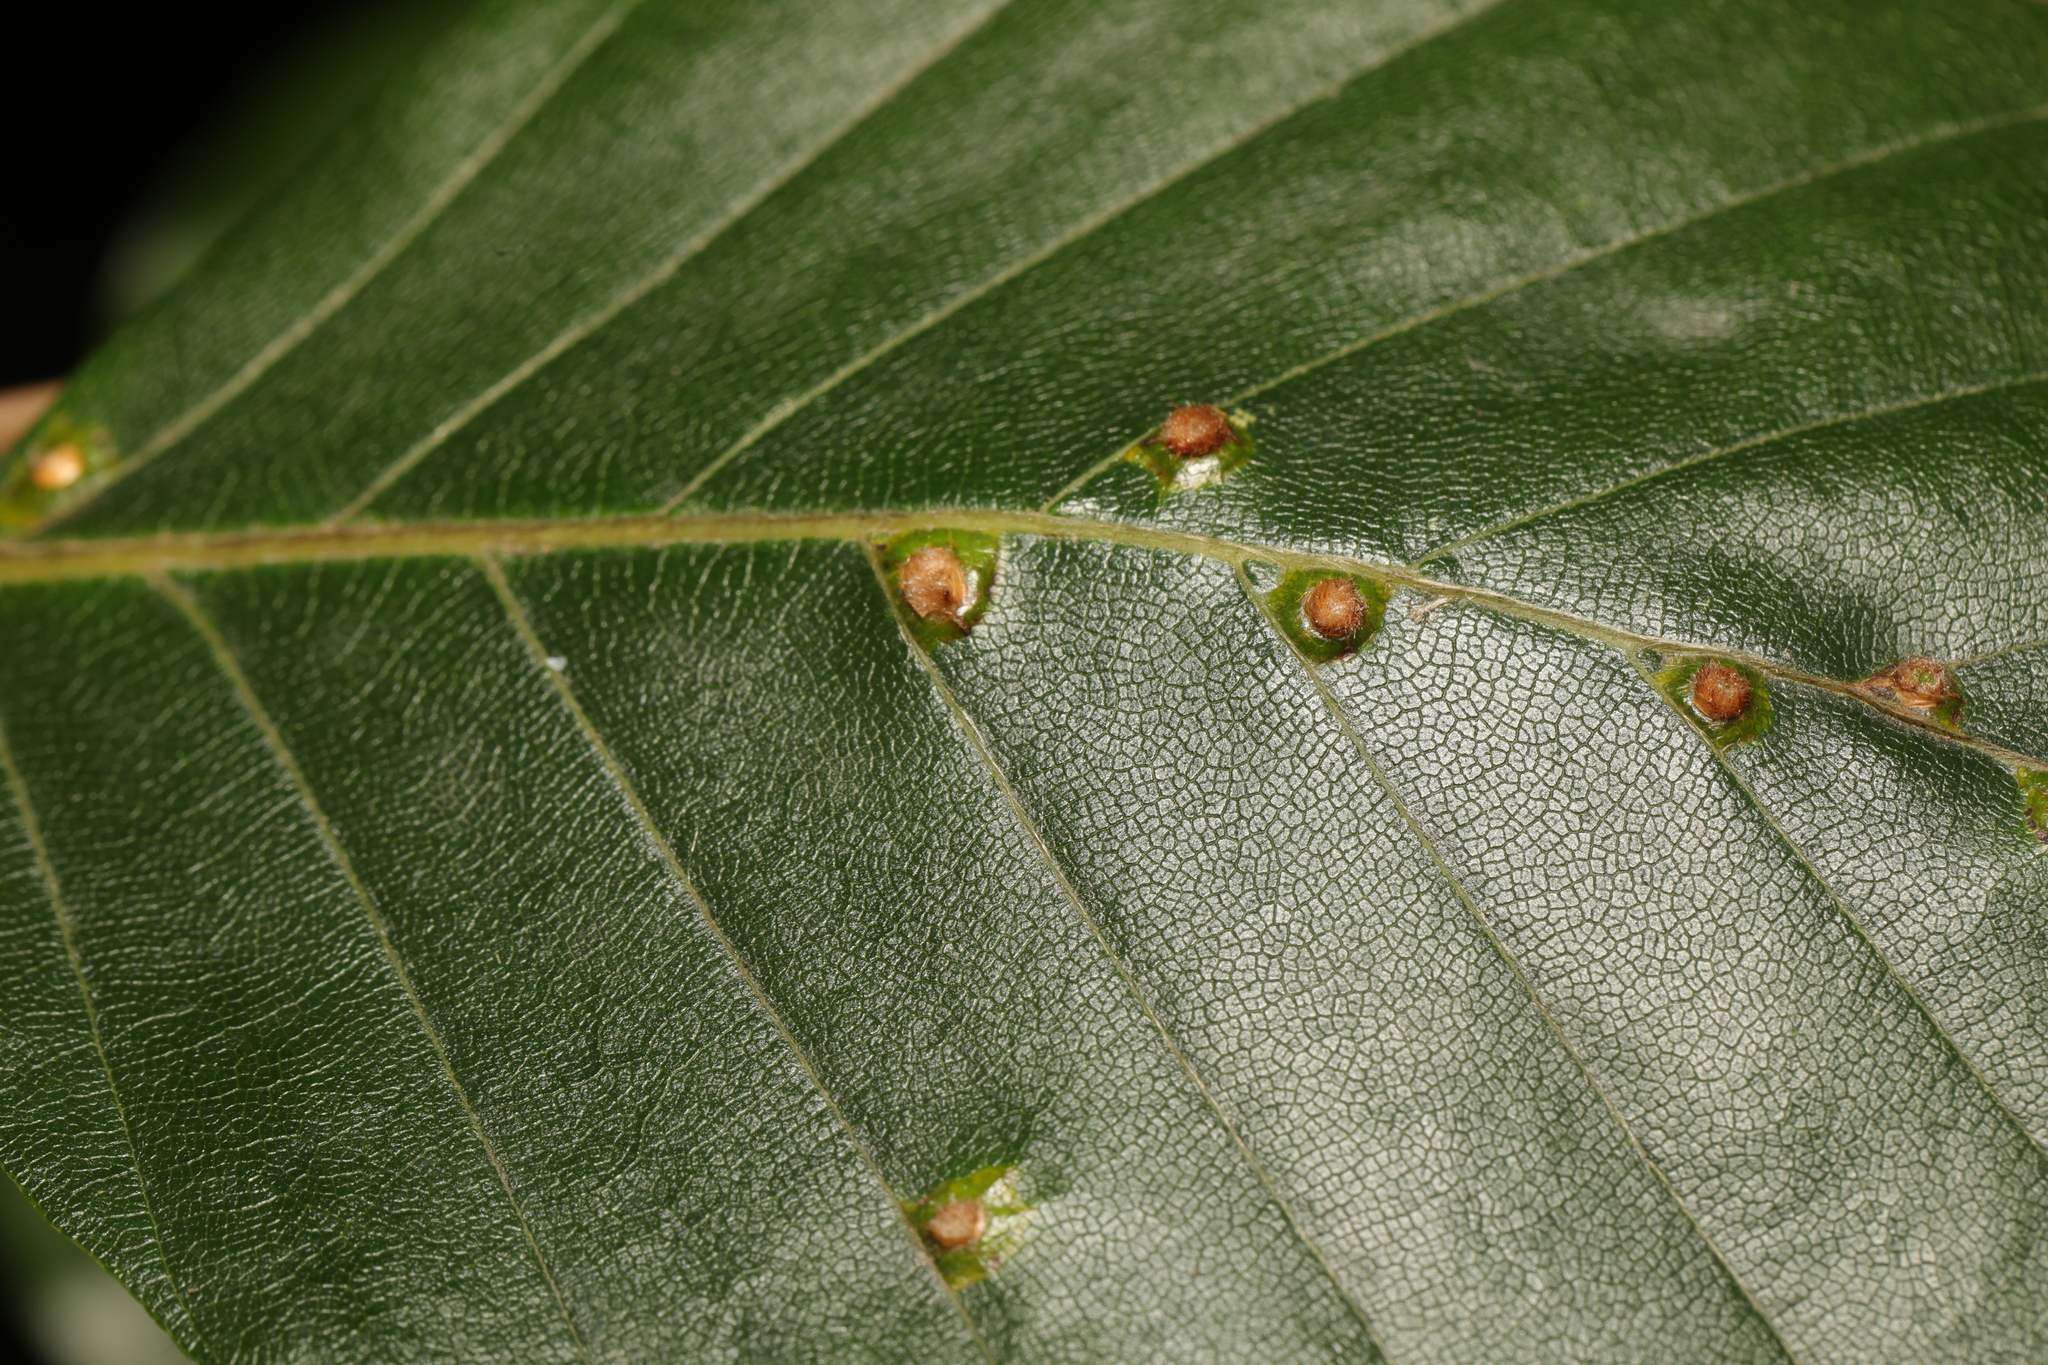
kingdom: Animalia
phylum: Arthropoda
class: Insecta
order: Diptera
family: Cecidomyiidae
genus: Hartigiola
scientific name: Hartigiola annulipes
